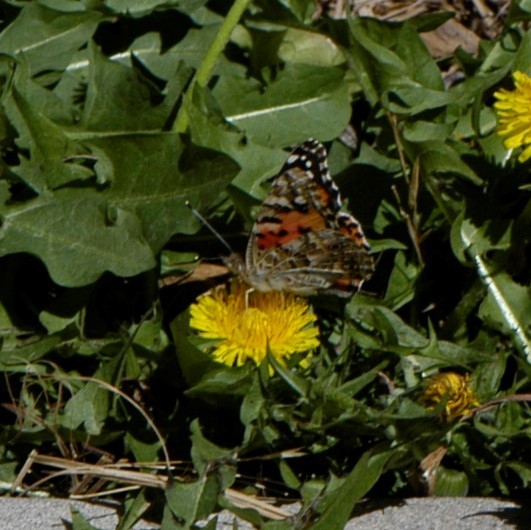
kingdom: Animalia
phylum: Arthropoda
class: Insecta
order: Lepidoptera
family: Nymphalidae
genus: Vanessa
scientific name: Vanessa cardui
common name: Painted lady
